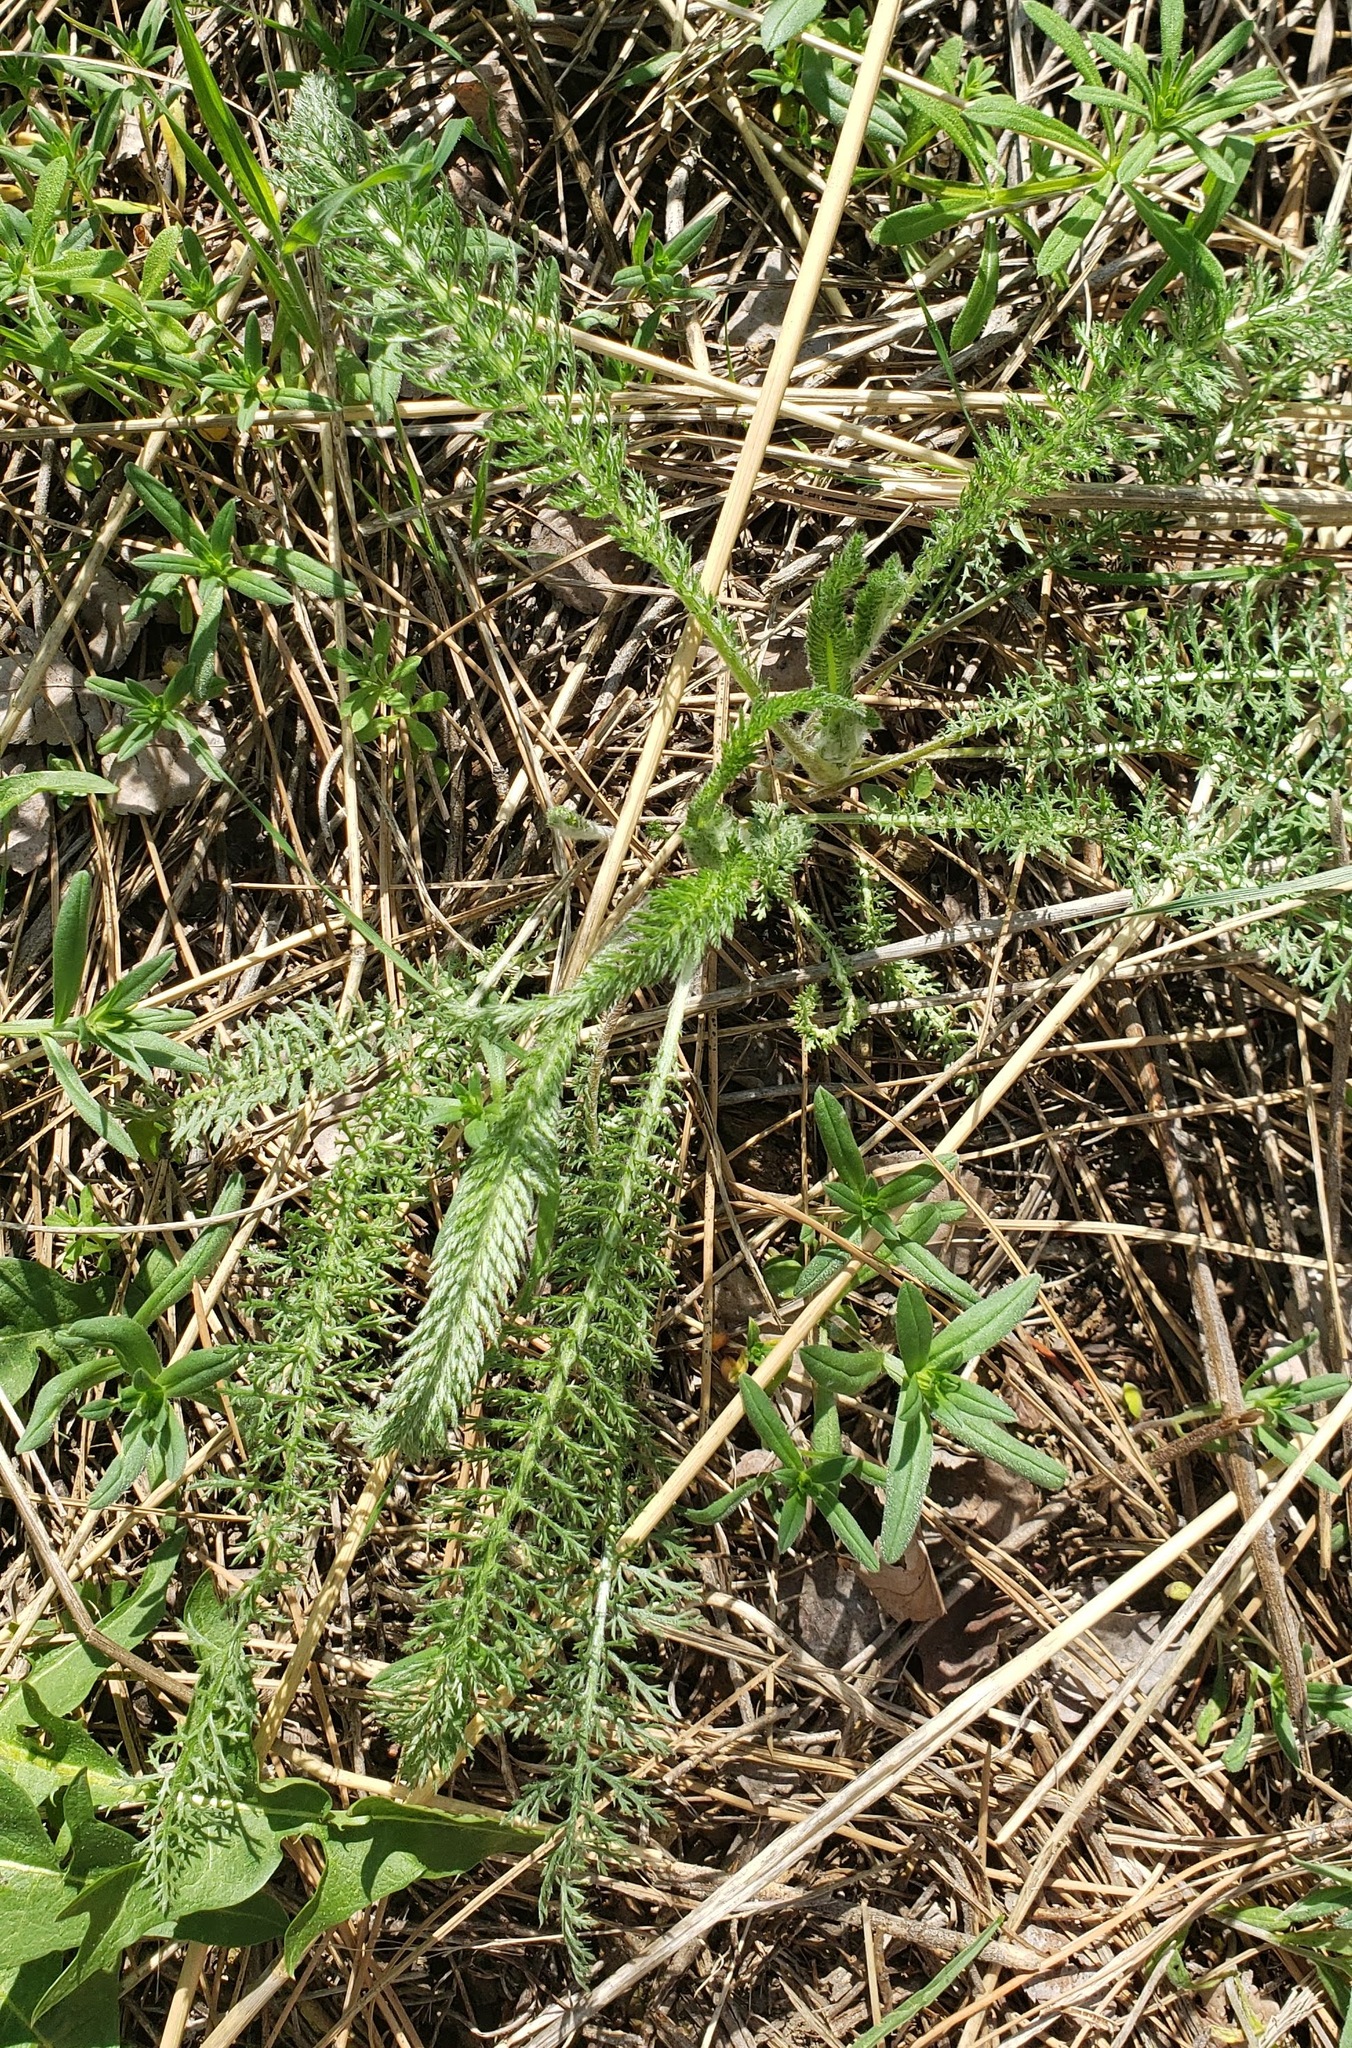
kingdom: Plantae
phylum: Tracheophyta
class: Magnoliopsida
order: Asterales
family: Asteraceae
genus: Achillea
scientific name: Achillea millefolium
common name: Yarrow
